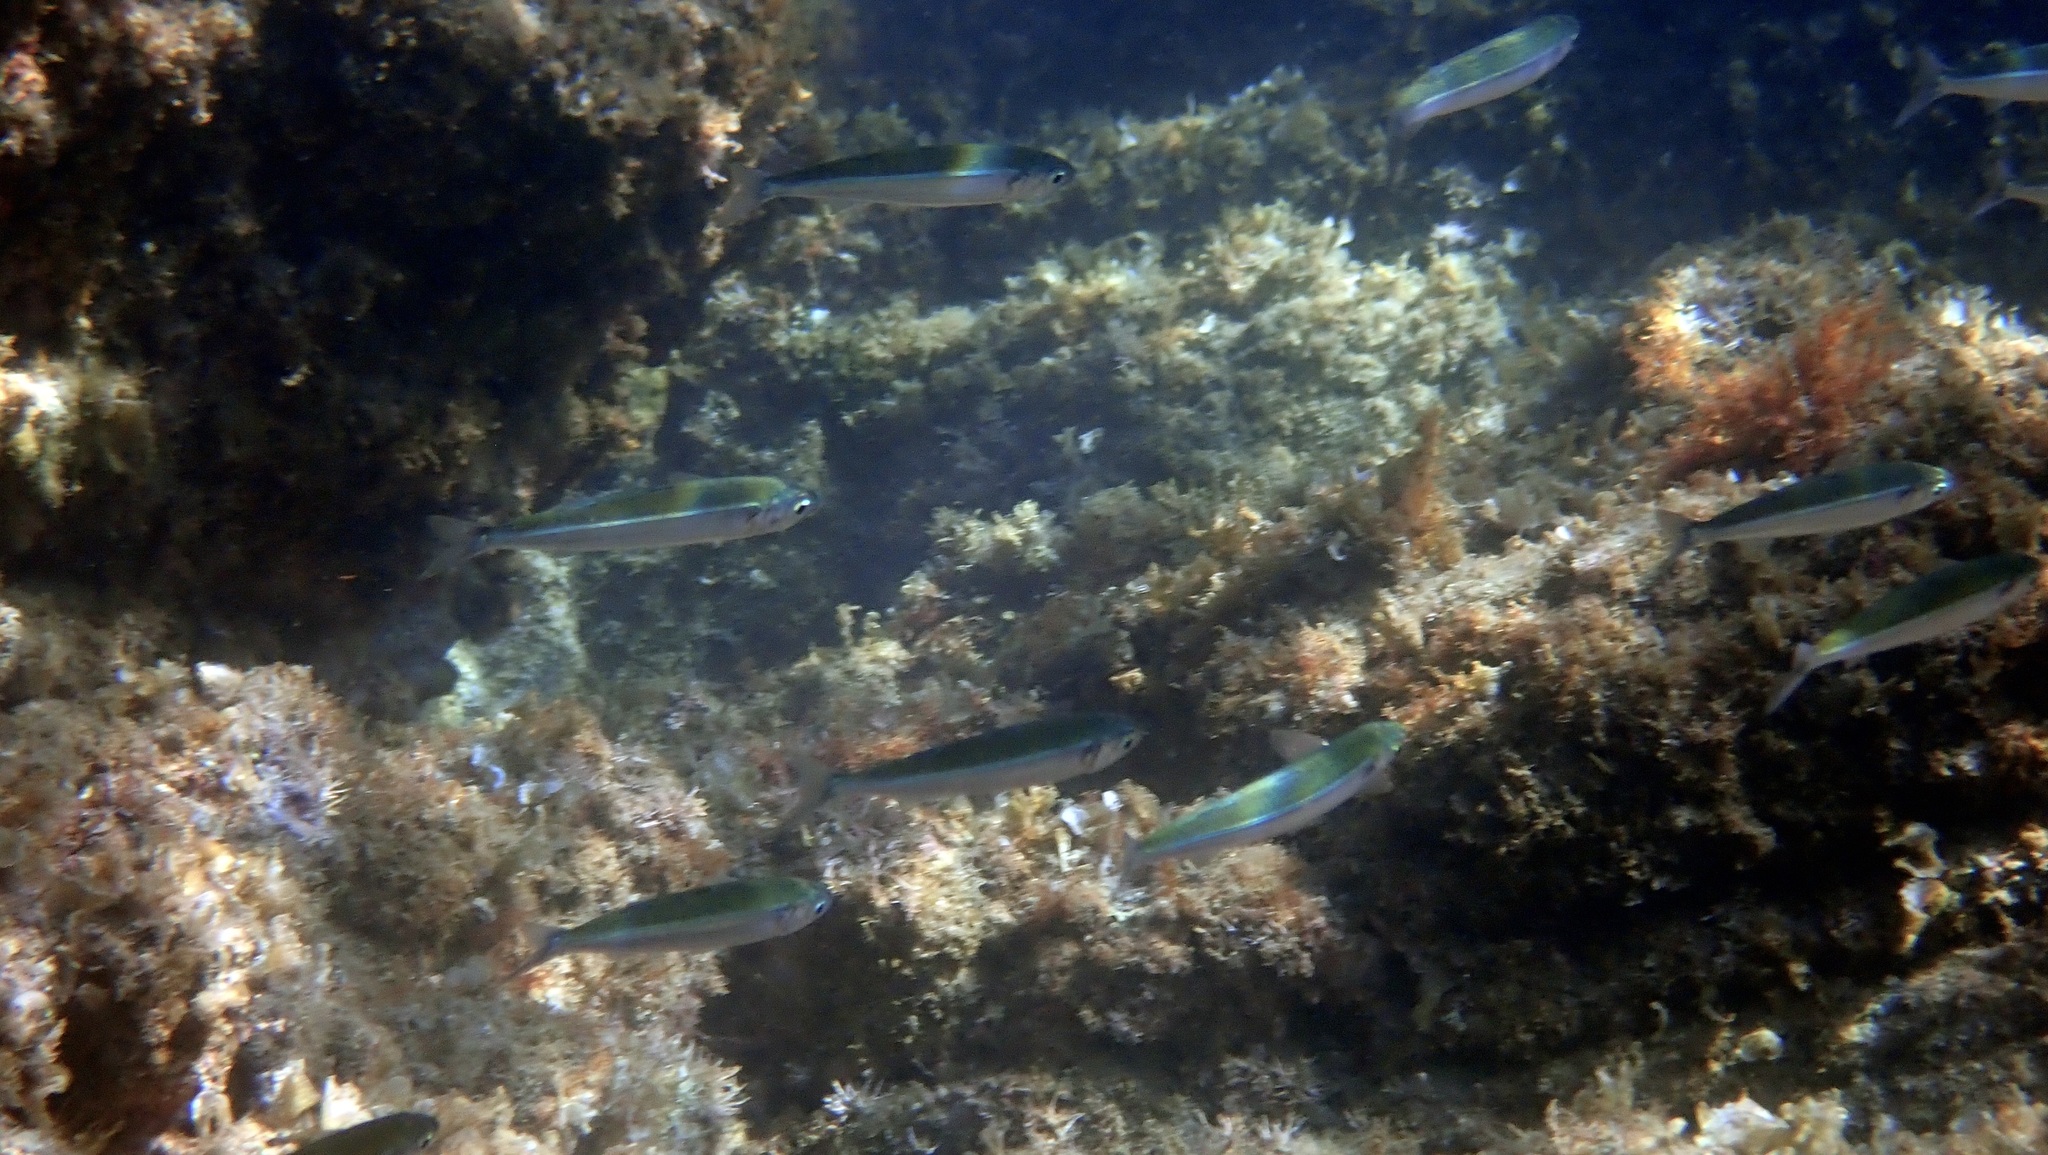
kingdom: Animalia
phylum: Chordata
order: Atheriniformes
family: Atherinidae
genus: Atherina
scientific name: Atherina hepsetus
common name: Mediterranean sand smelt
